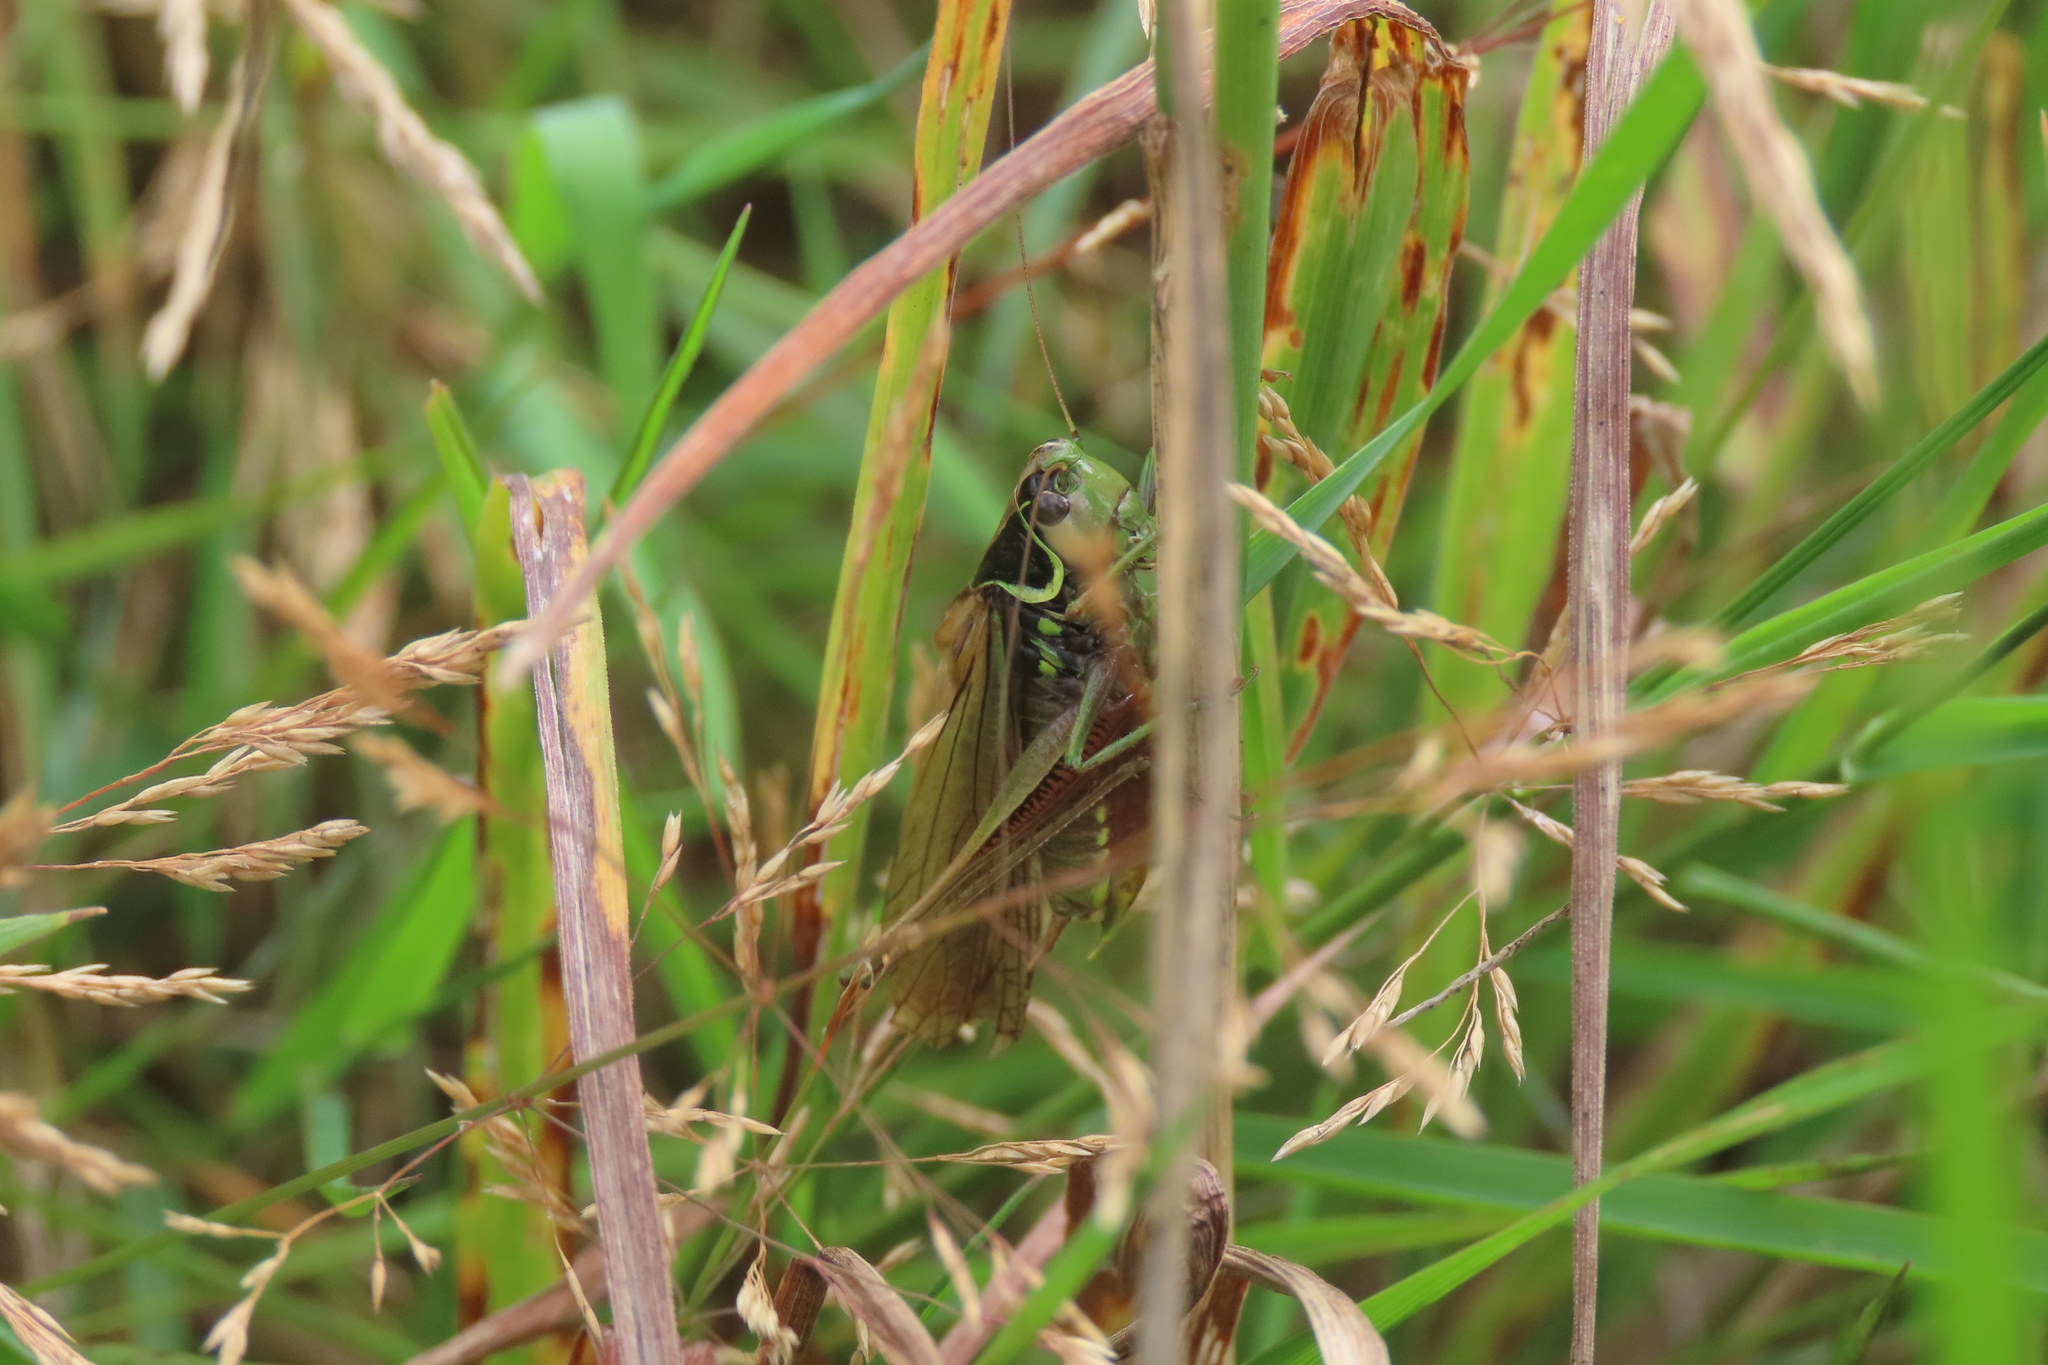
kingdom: Animalia
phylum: Arthropoda
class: Insecta
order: Orthoptera
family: Tettigoniidae
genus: Roeseliana
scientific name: Roeseliana roeselii
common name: Roesel's bush cricket
